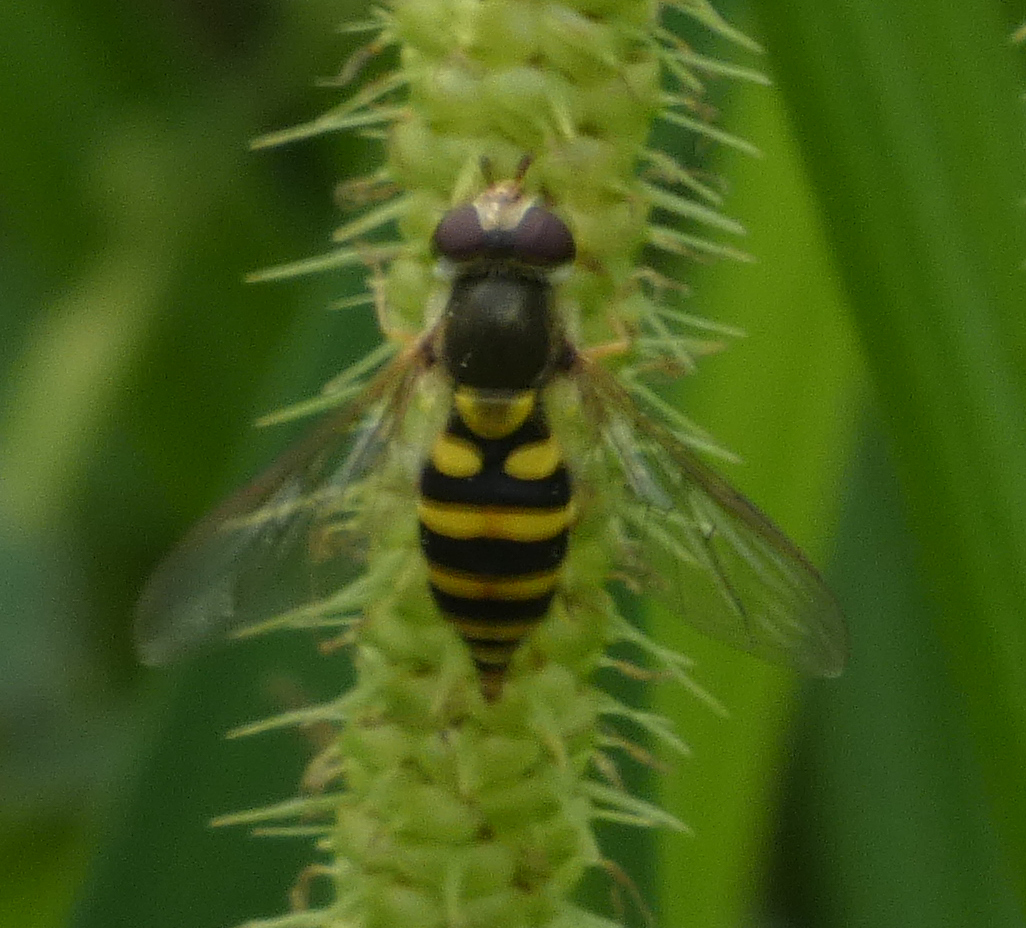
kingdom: Animalia
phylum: Arthropoda
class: Insecta
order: Diptera
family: Syrphidae
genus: Syrphus
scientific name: Syrphus
